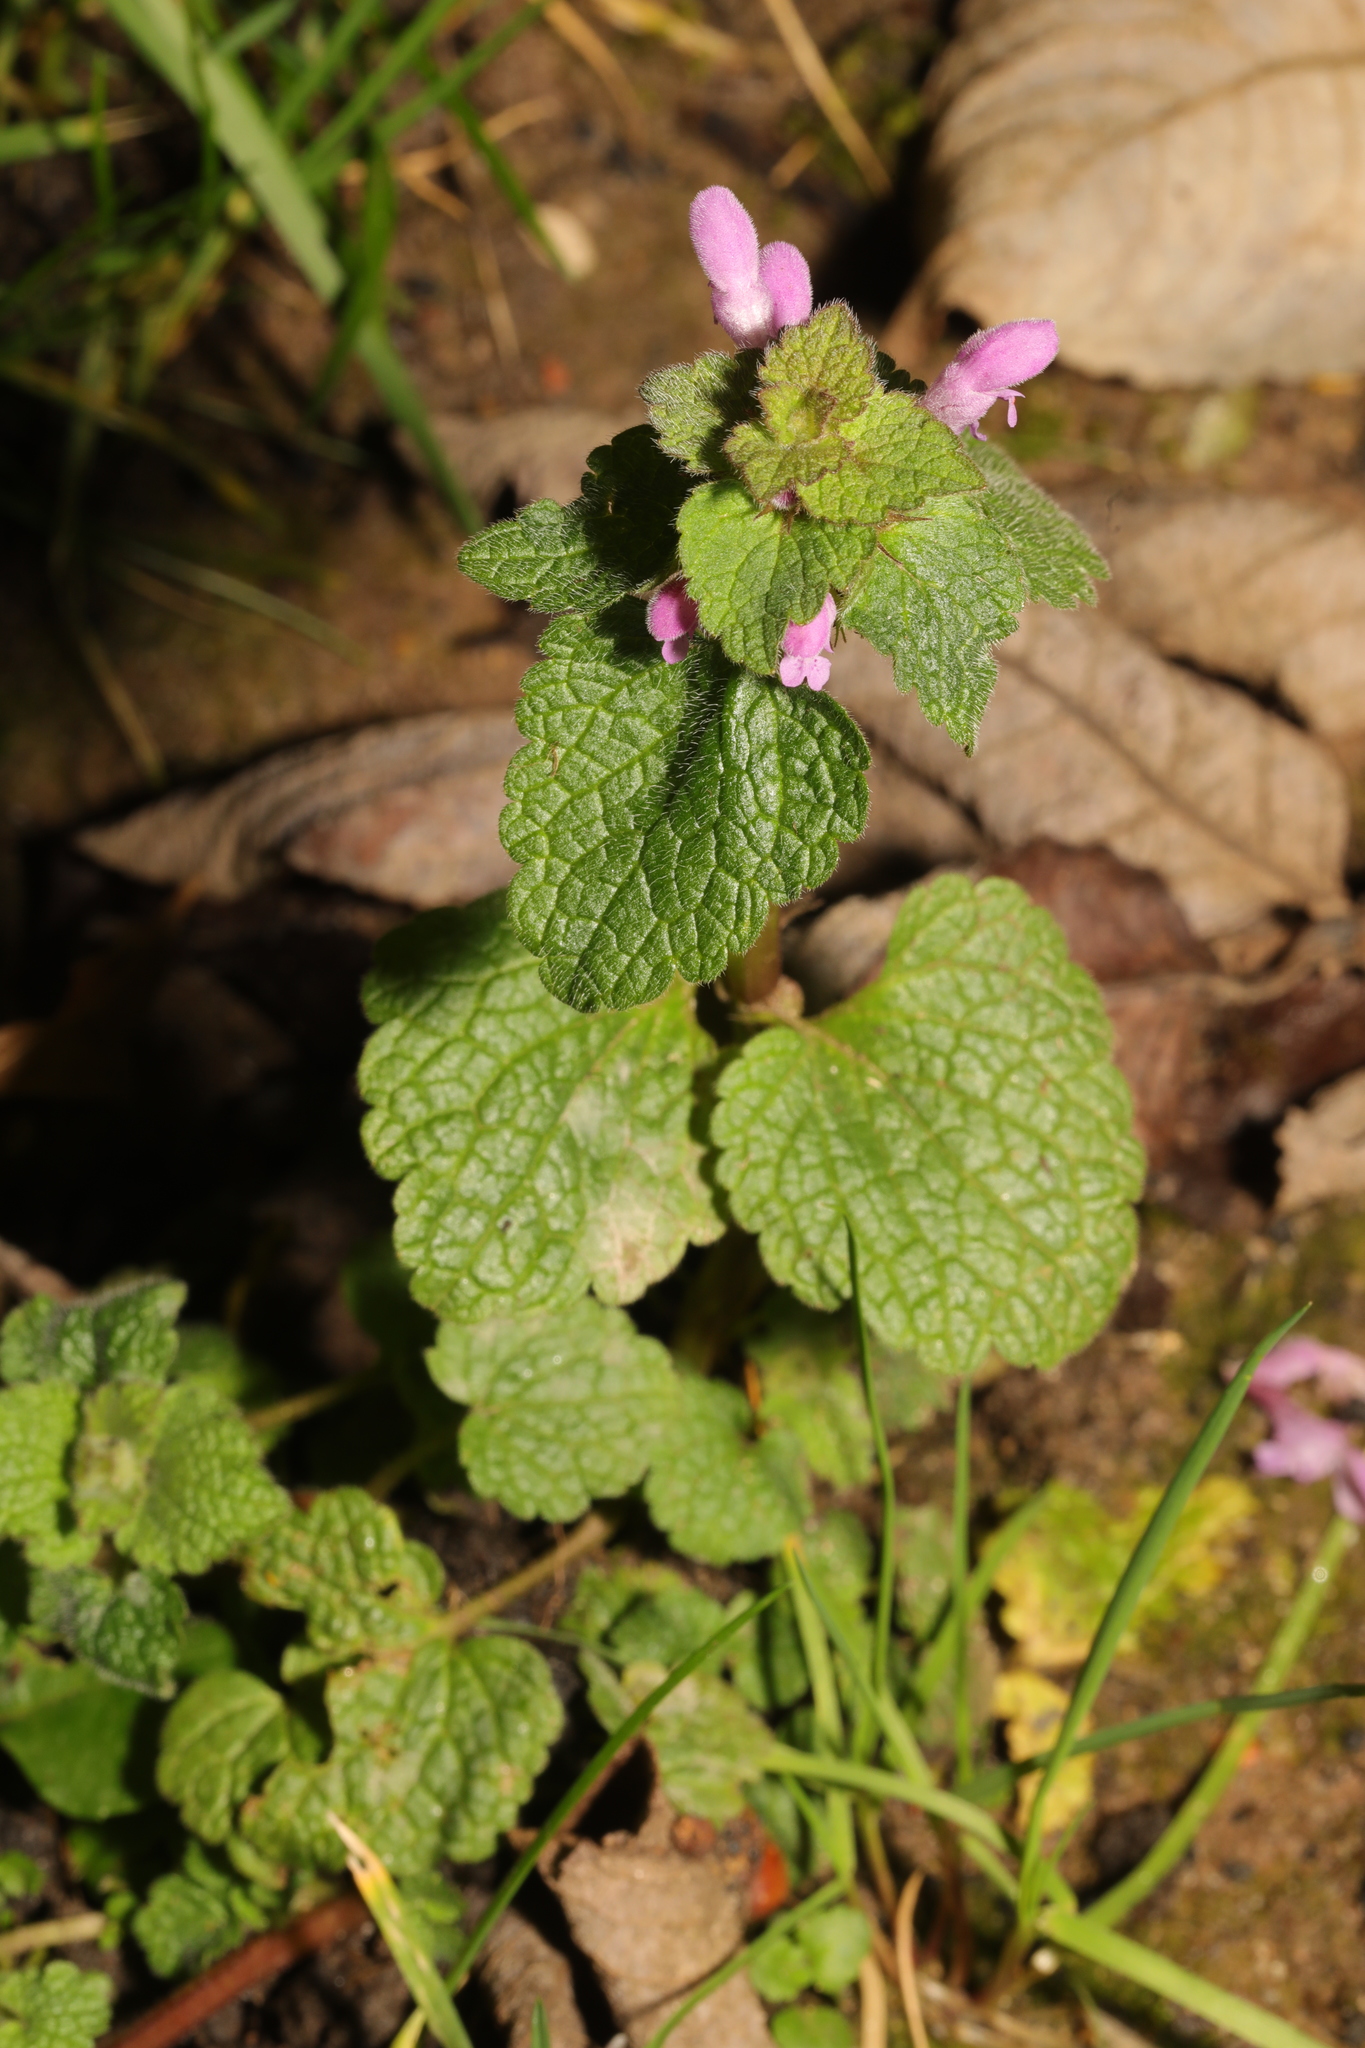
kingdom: Plantae
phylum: Tracheophyta
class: Magnoliopsida
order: Lamiales
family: Lamiaceae
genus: Lamium
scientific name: Lamium purpureum
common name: Red dead-nettle
